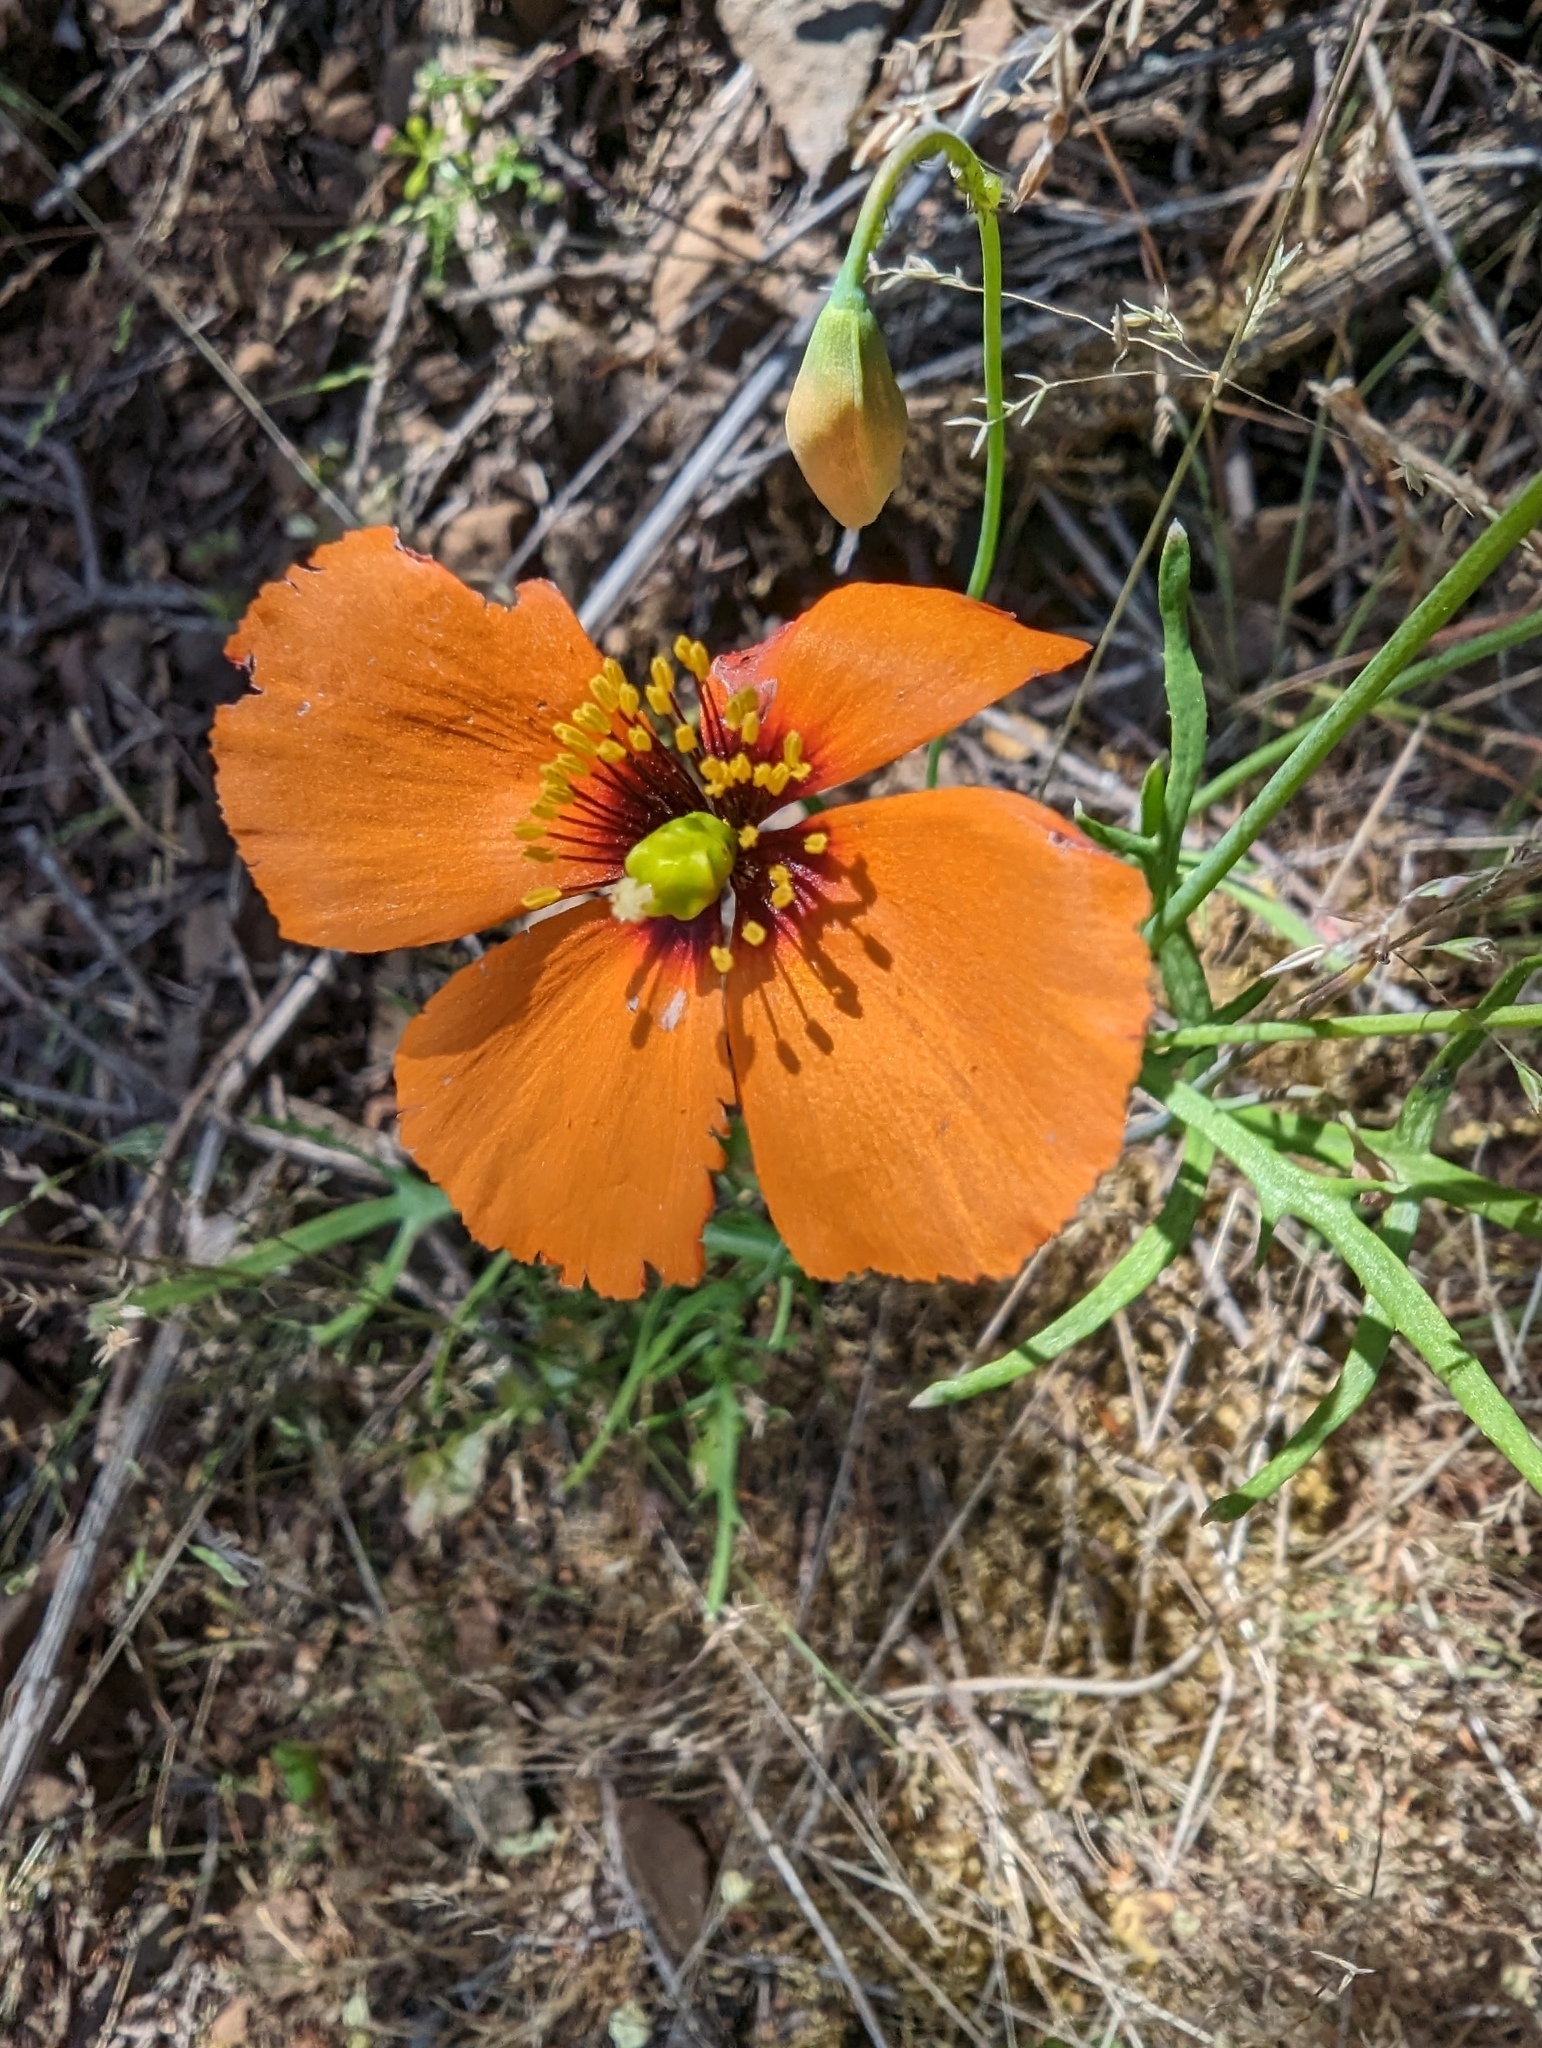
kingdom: Plantae
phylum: Tracheophyta
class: Magnoliopsida
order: Ranunculales
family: Papaveraceae
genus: Stylomecon
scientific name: Stylomecon heterophylla
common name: Flaming-poppy
